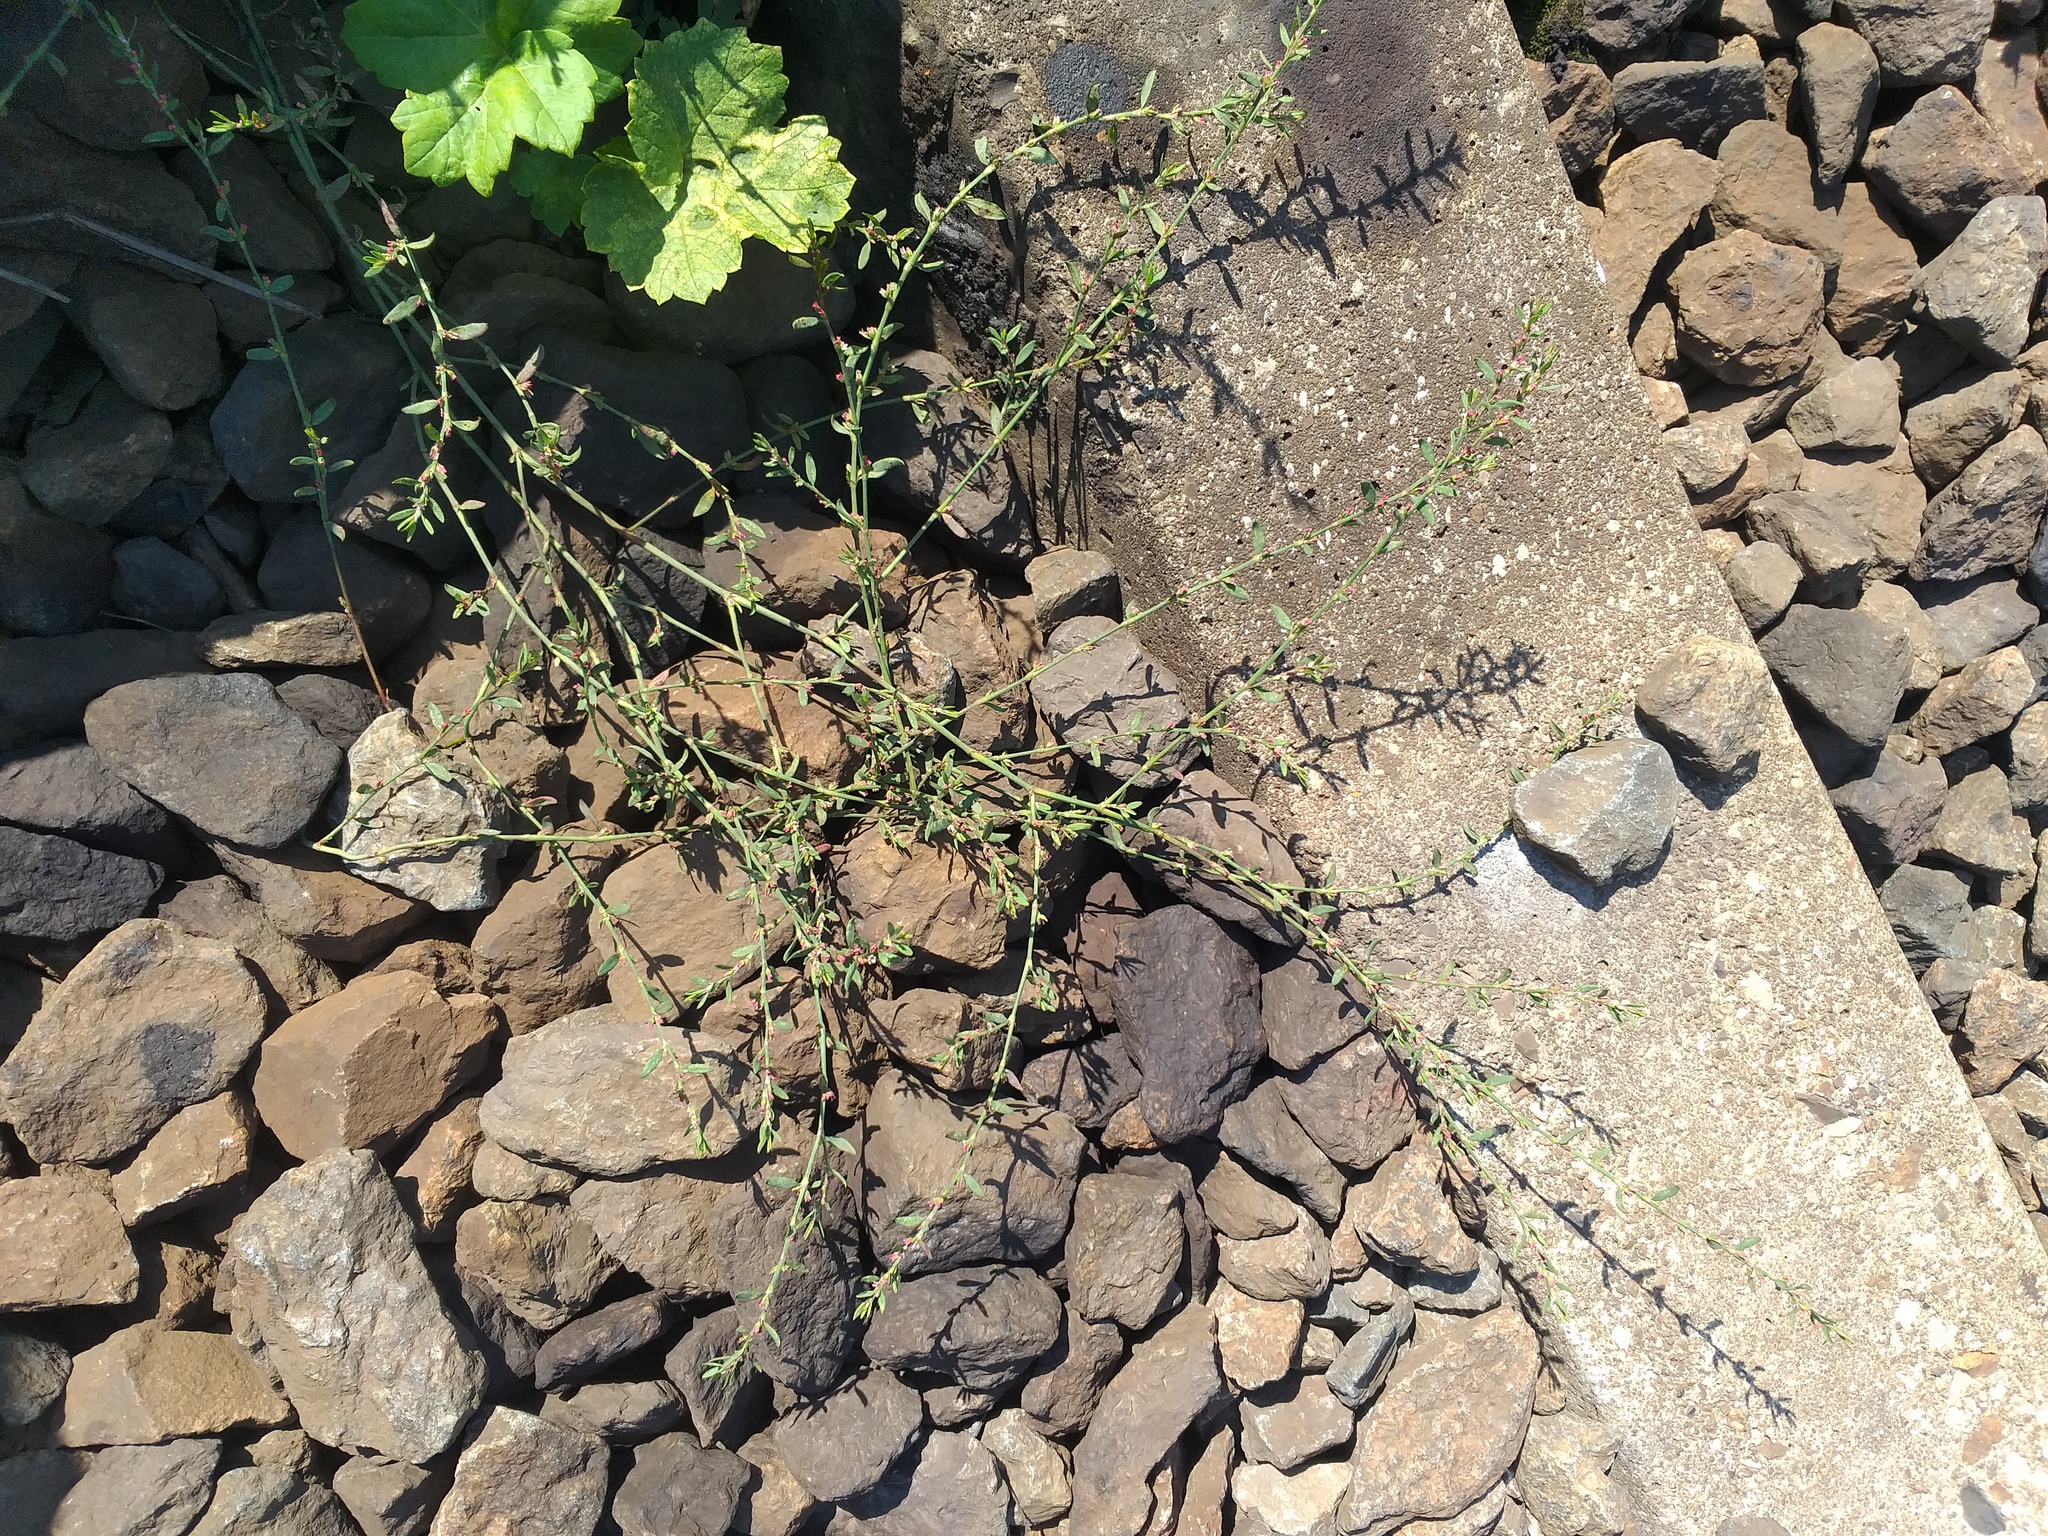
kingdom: Plantae
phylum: Tracheophyta
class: Magnoliopsida
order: Caryophyllales
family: Polygonaceae
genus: Polygonum
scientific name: Polygonum
